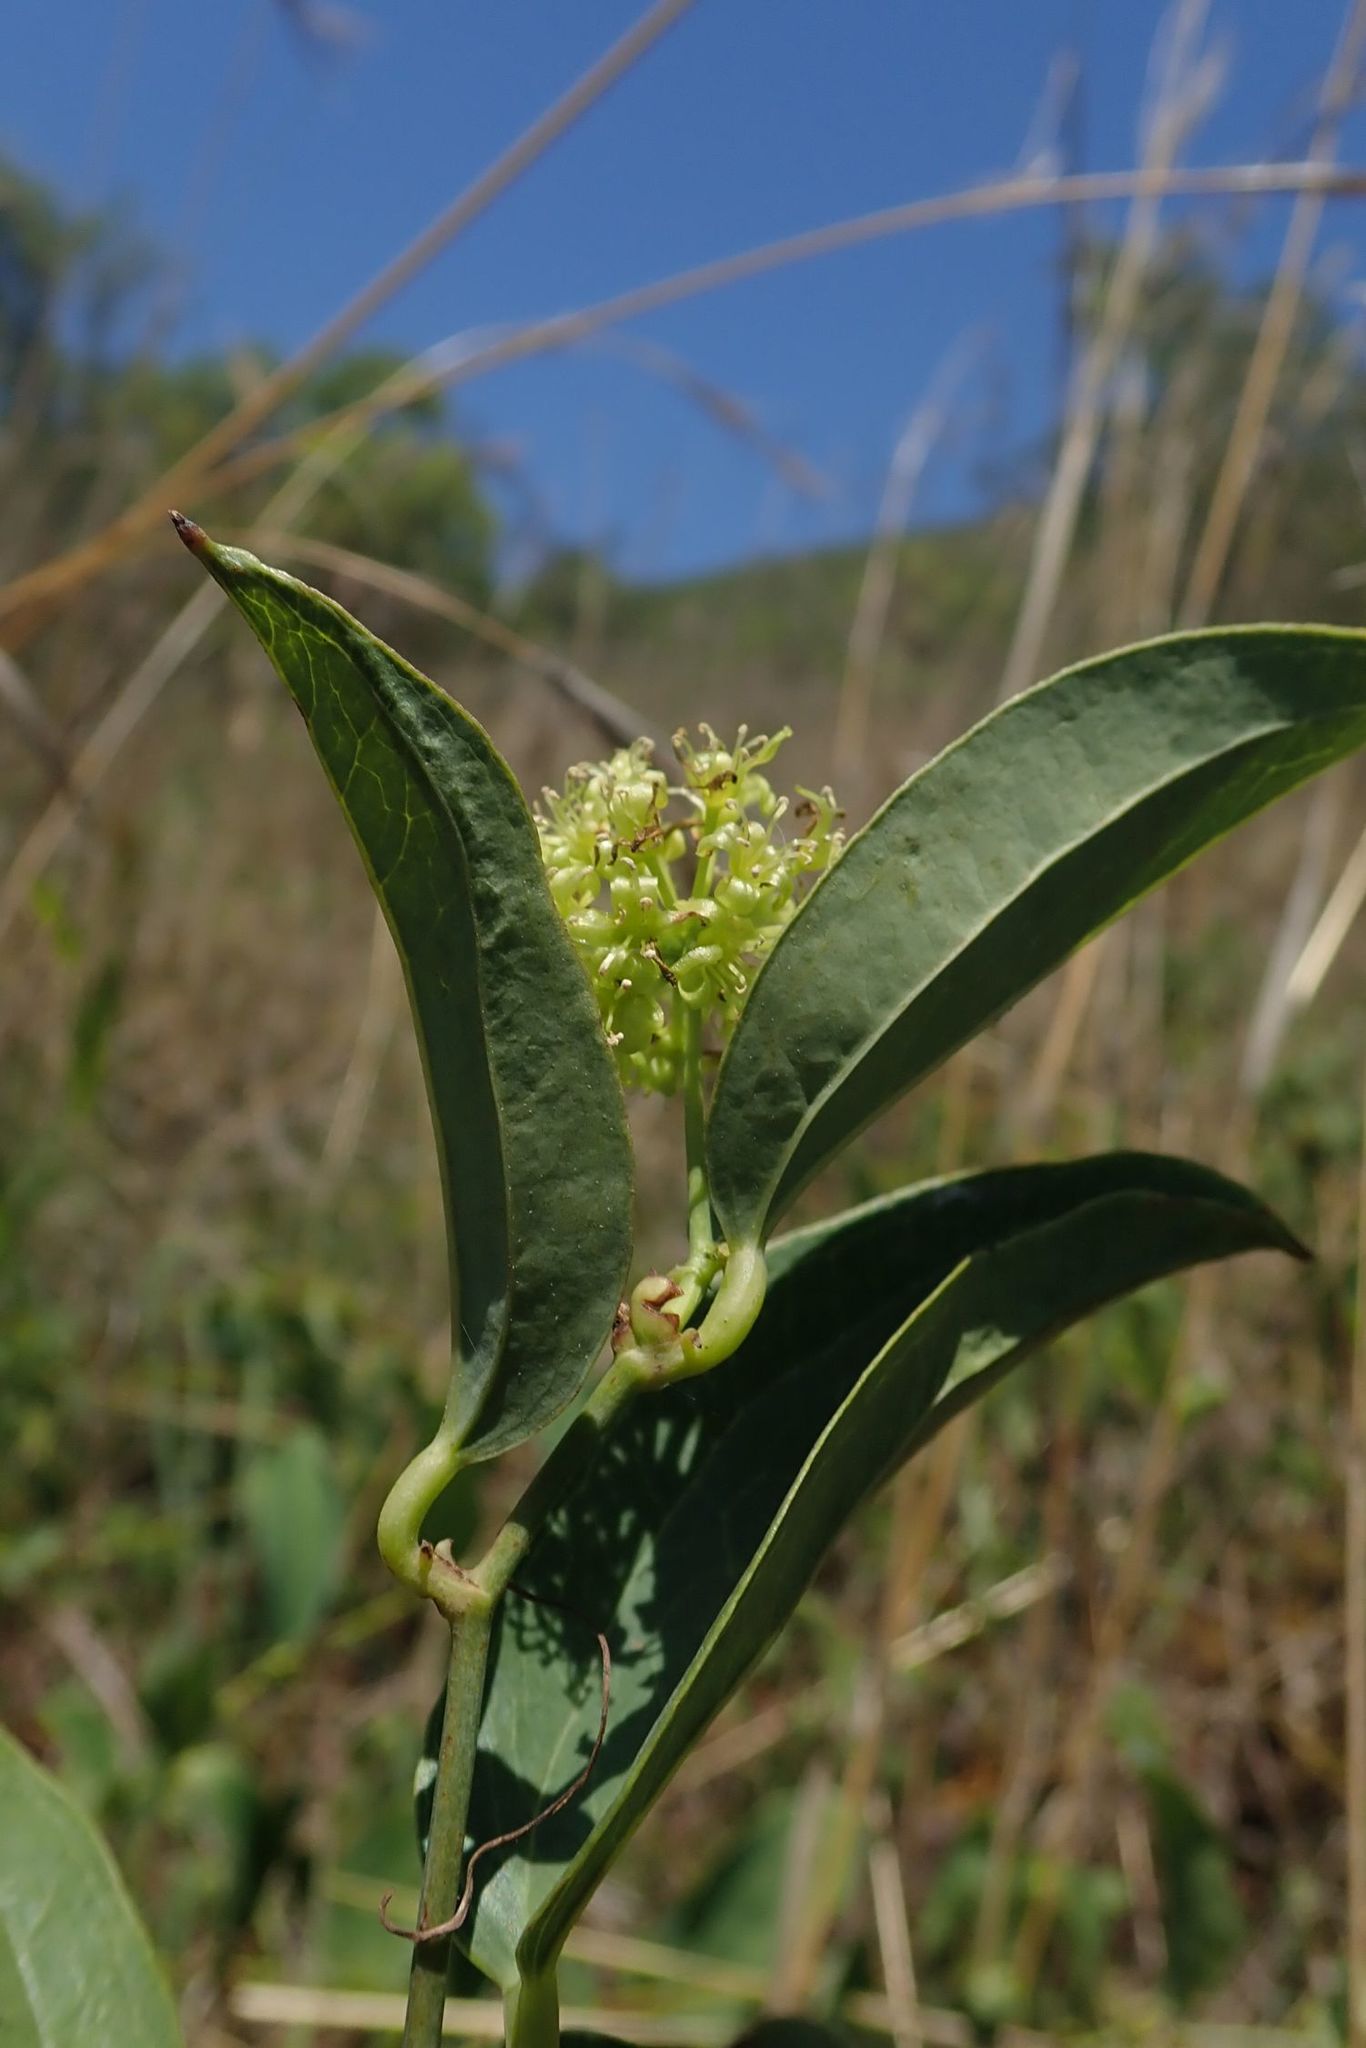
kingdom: Plantae
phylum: Tracheophyta
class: Liliopsida
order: Liliales
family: Smilacaceae
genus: Smilax
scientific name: Smilax anceps
